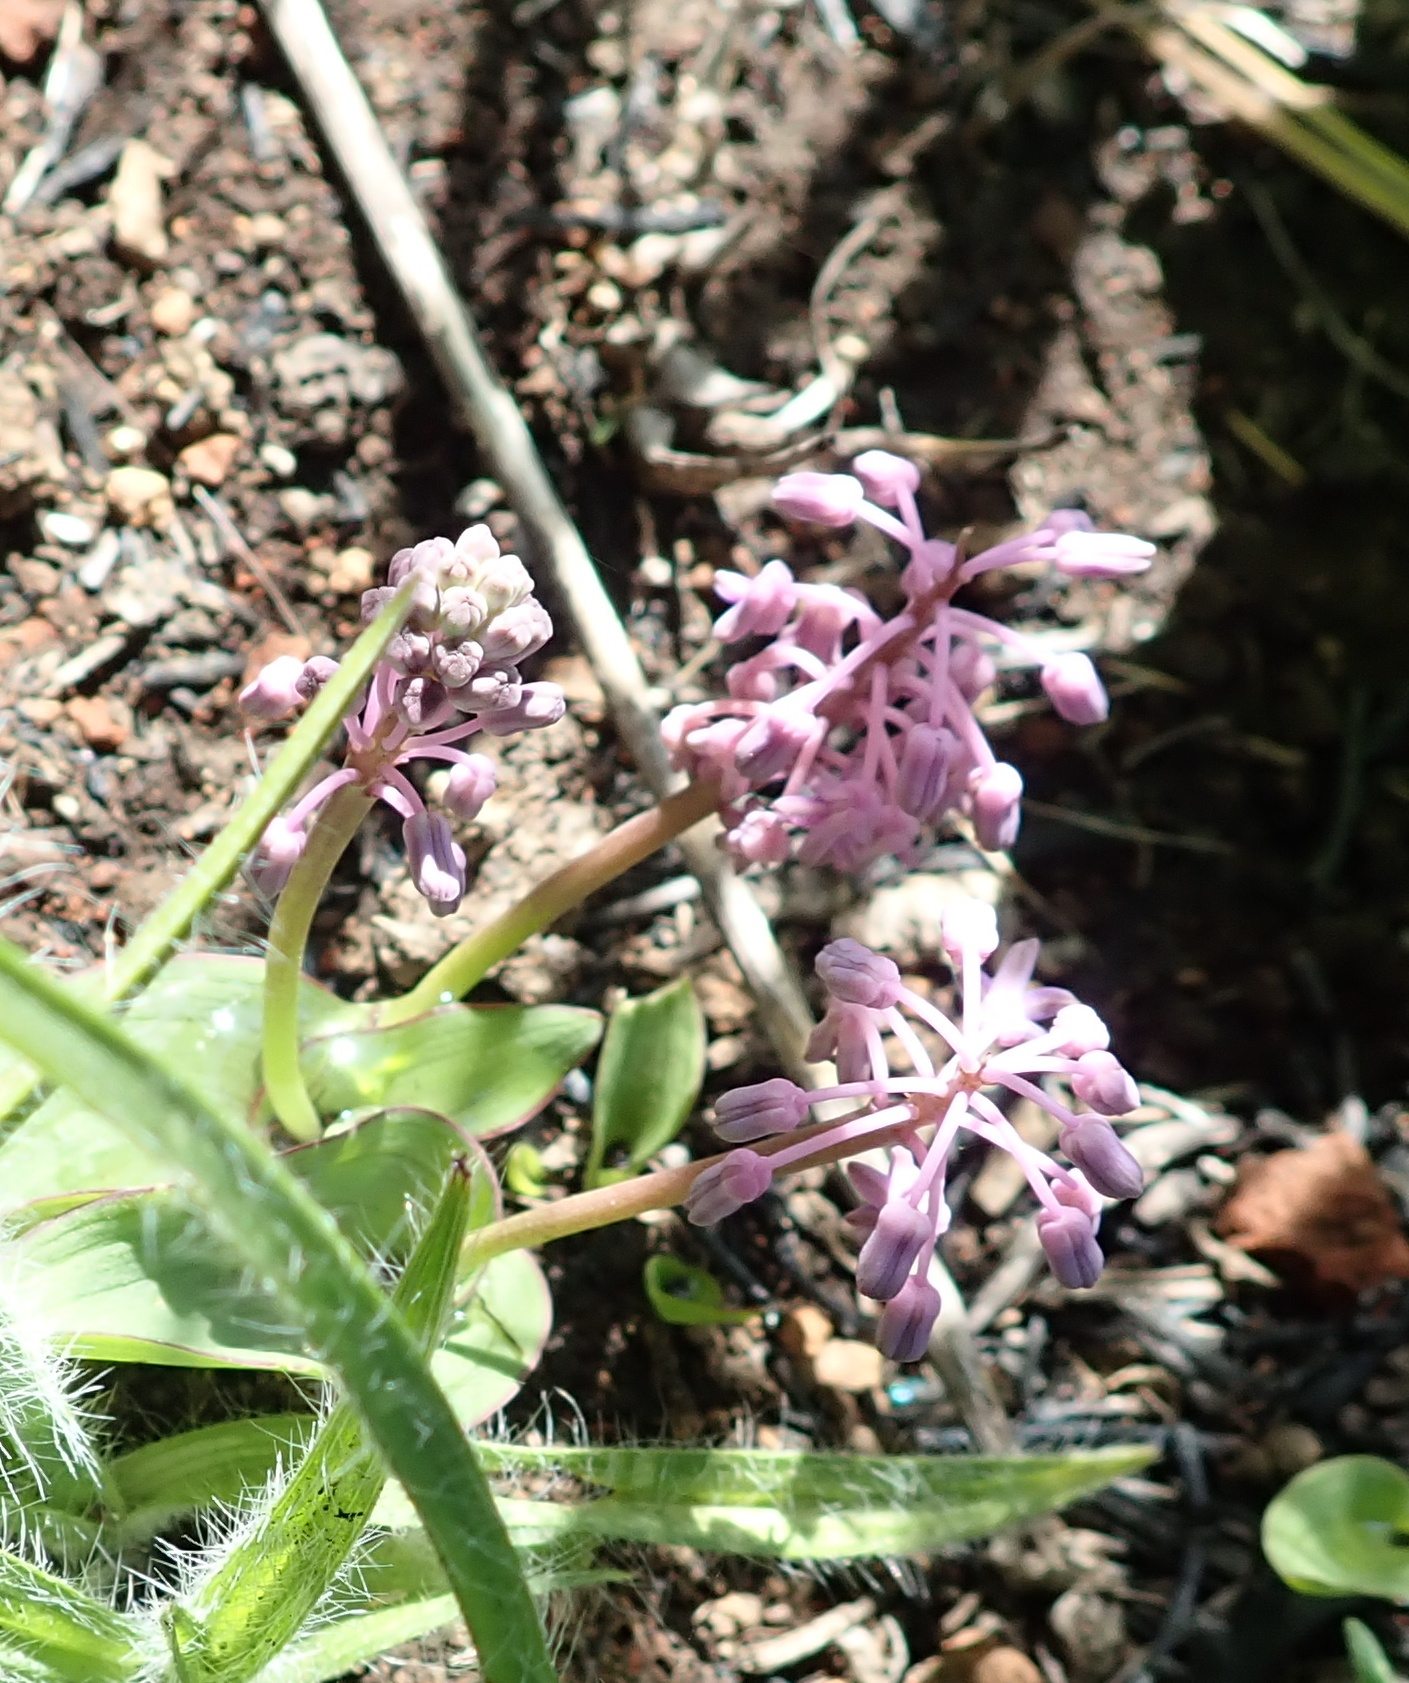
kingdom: Plantae
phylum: Tracheophyta
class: Liliopsida
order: Asparagales
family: Asparagaceae
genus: Ledebouria
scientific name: Ledebouria sandersonii
